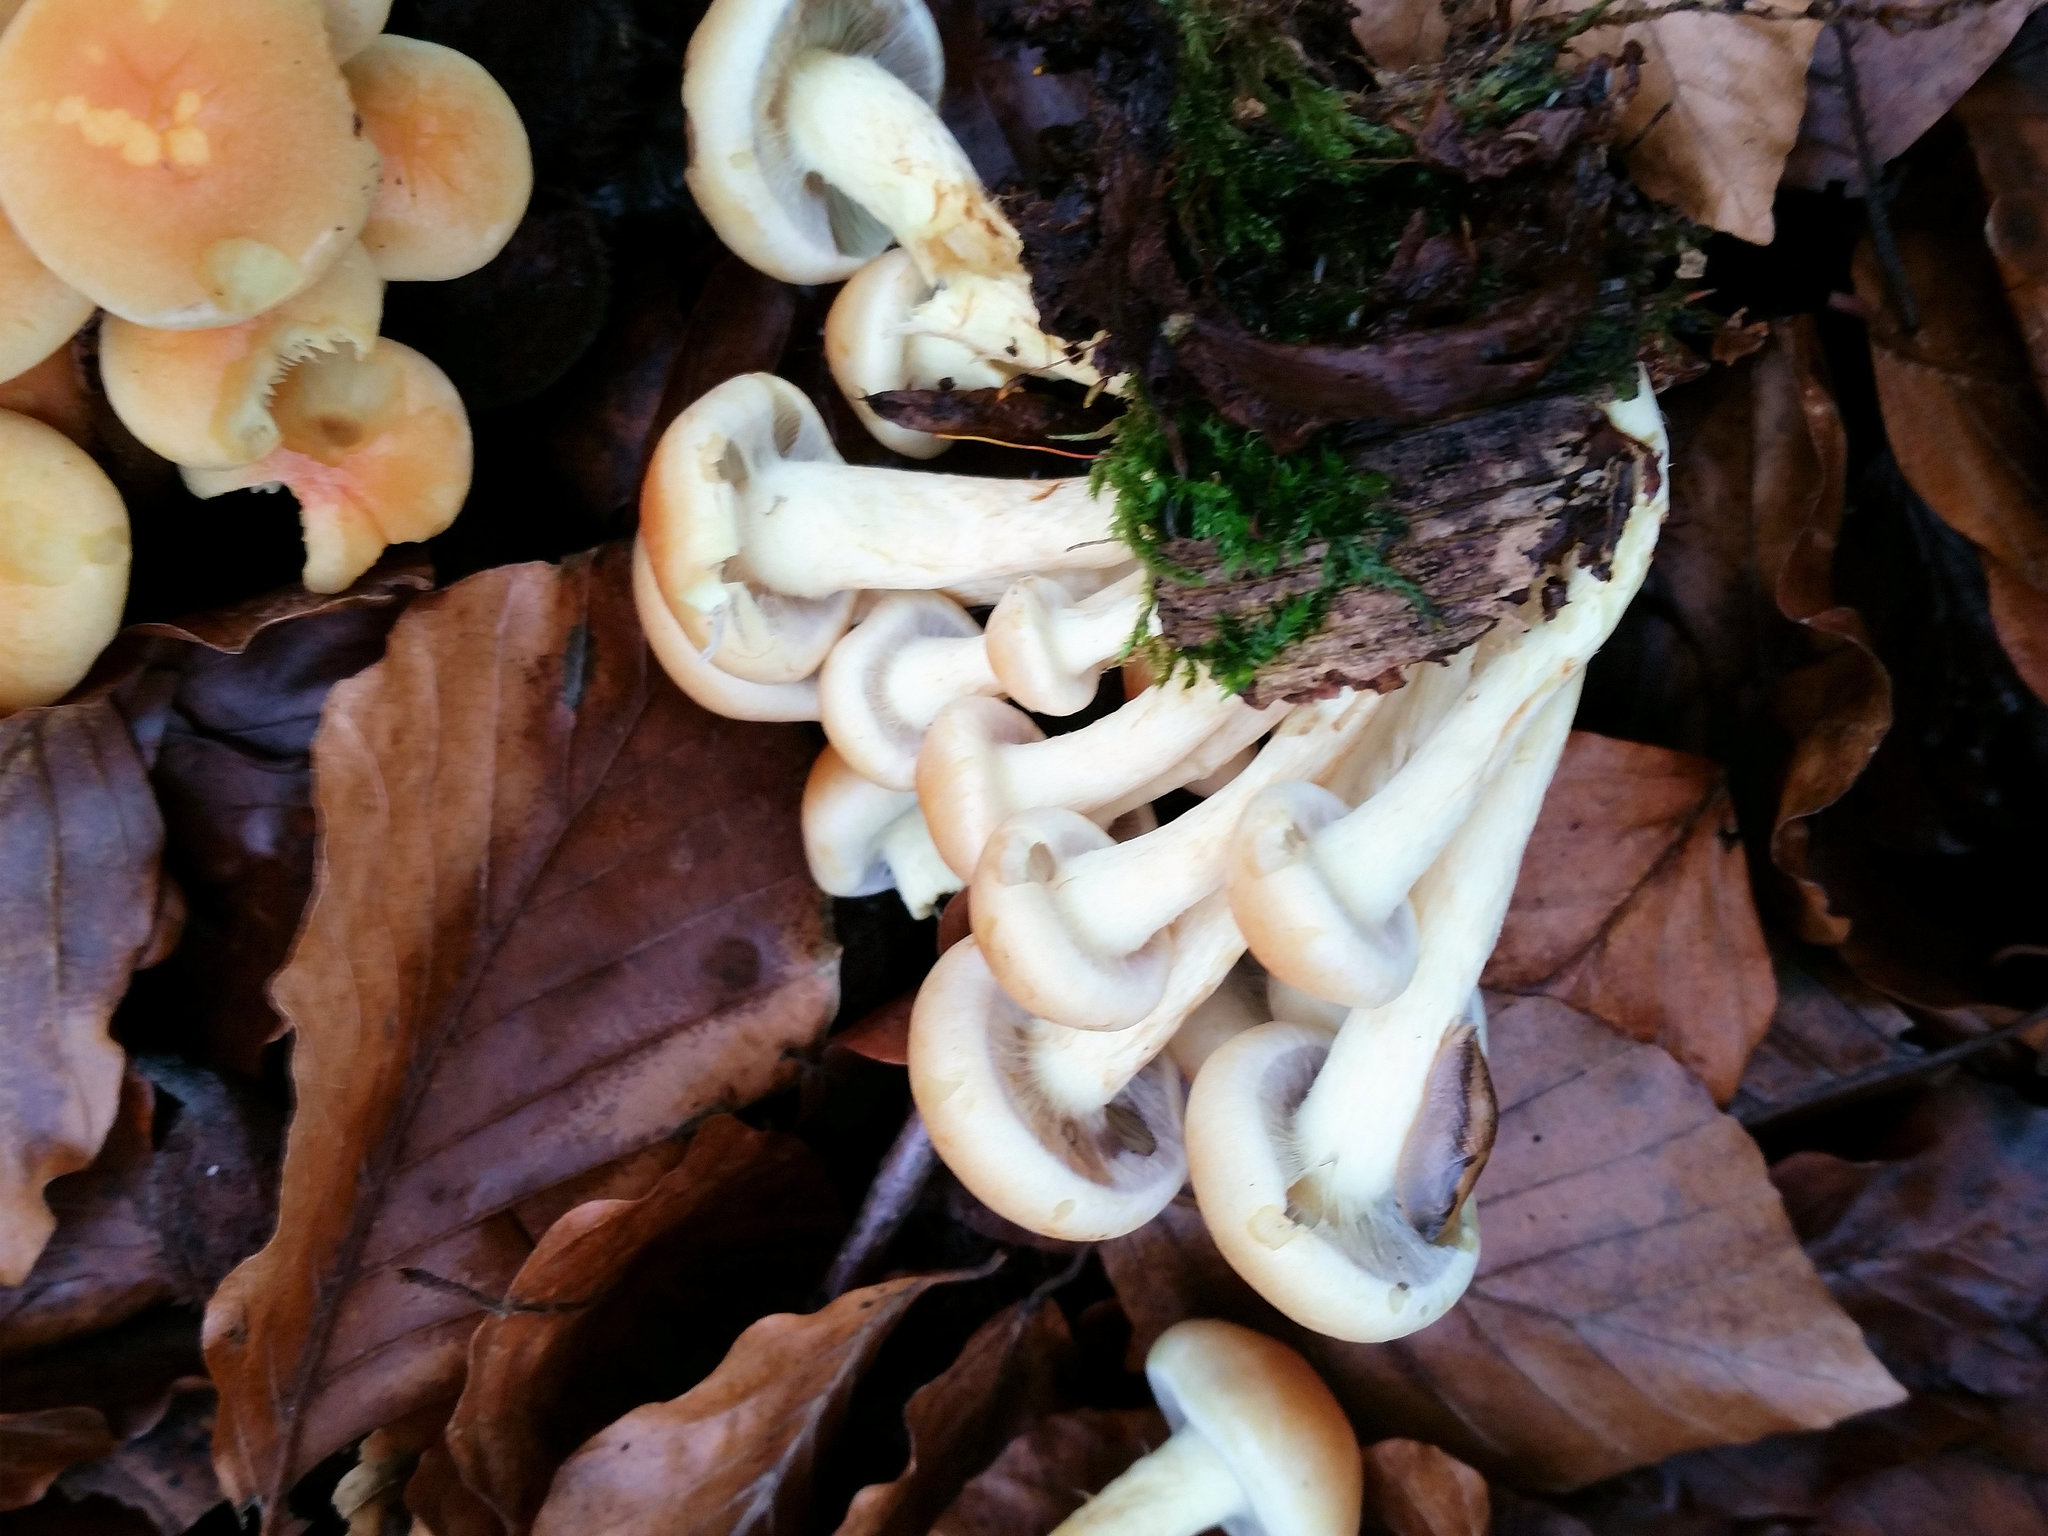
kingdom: Fungi
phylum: Basidiomycota
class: Agaricomycetes
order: Agaricales
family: Strophariaceae
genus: Hypholoma
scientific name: Hypholoma fasciculare
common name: Sulphur tuft
